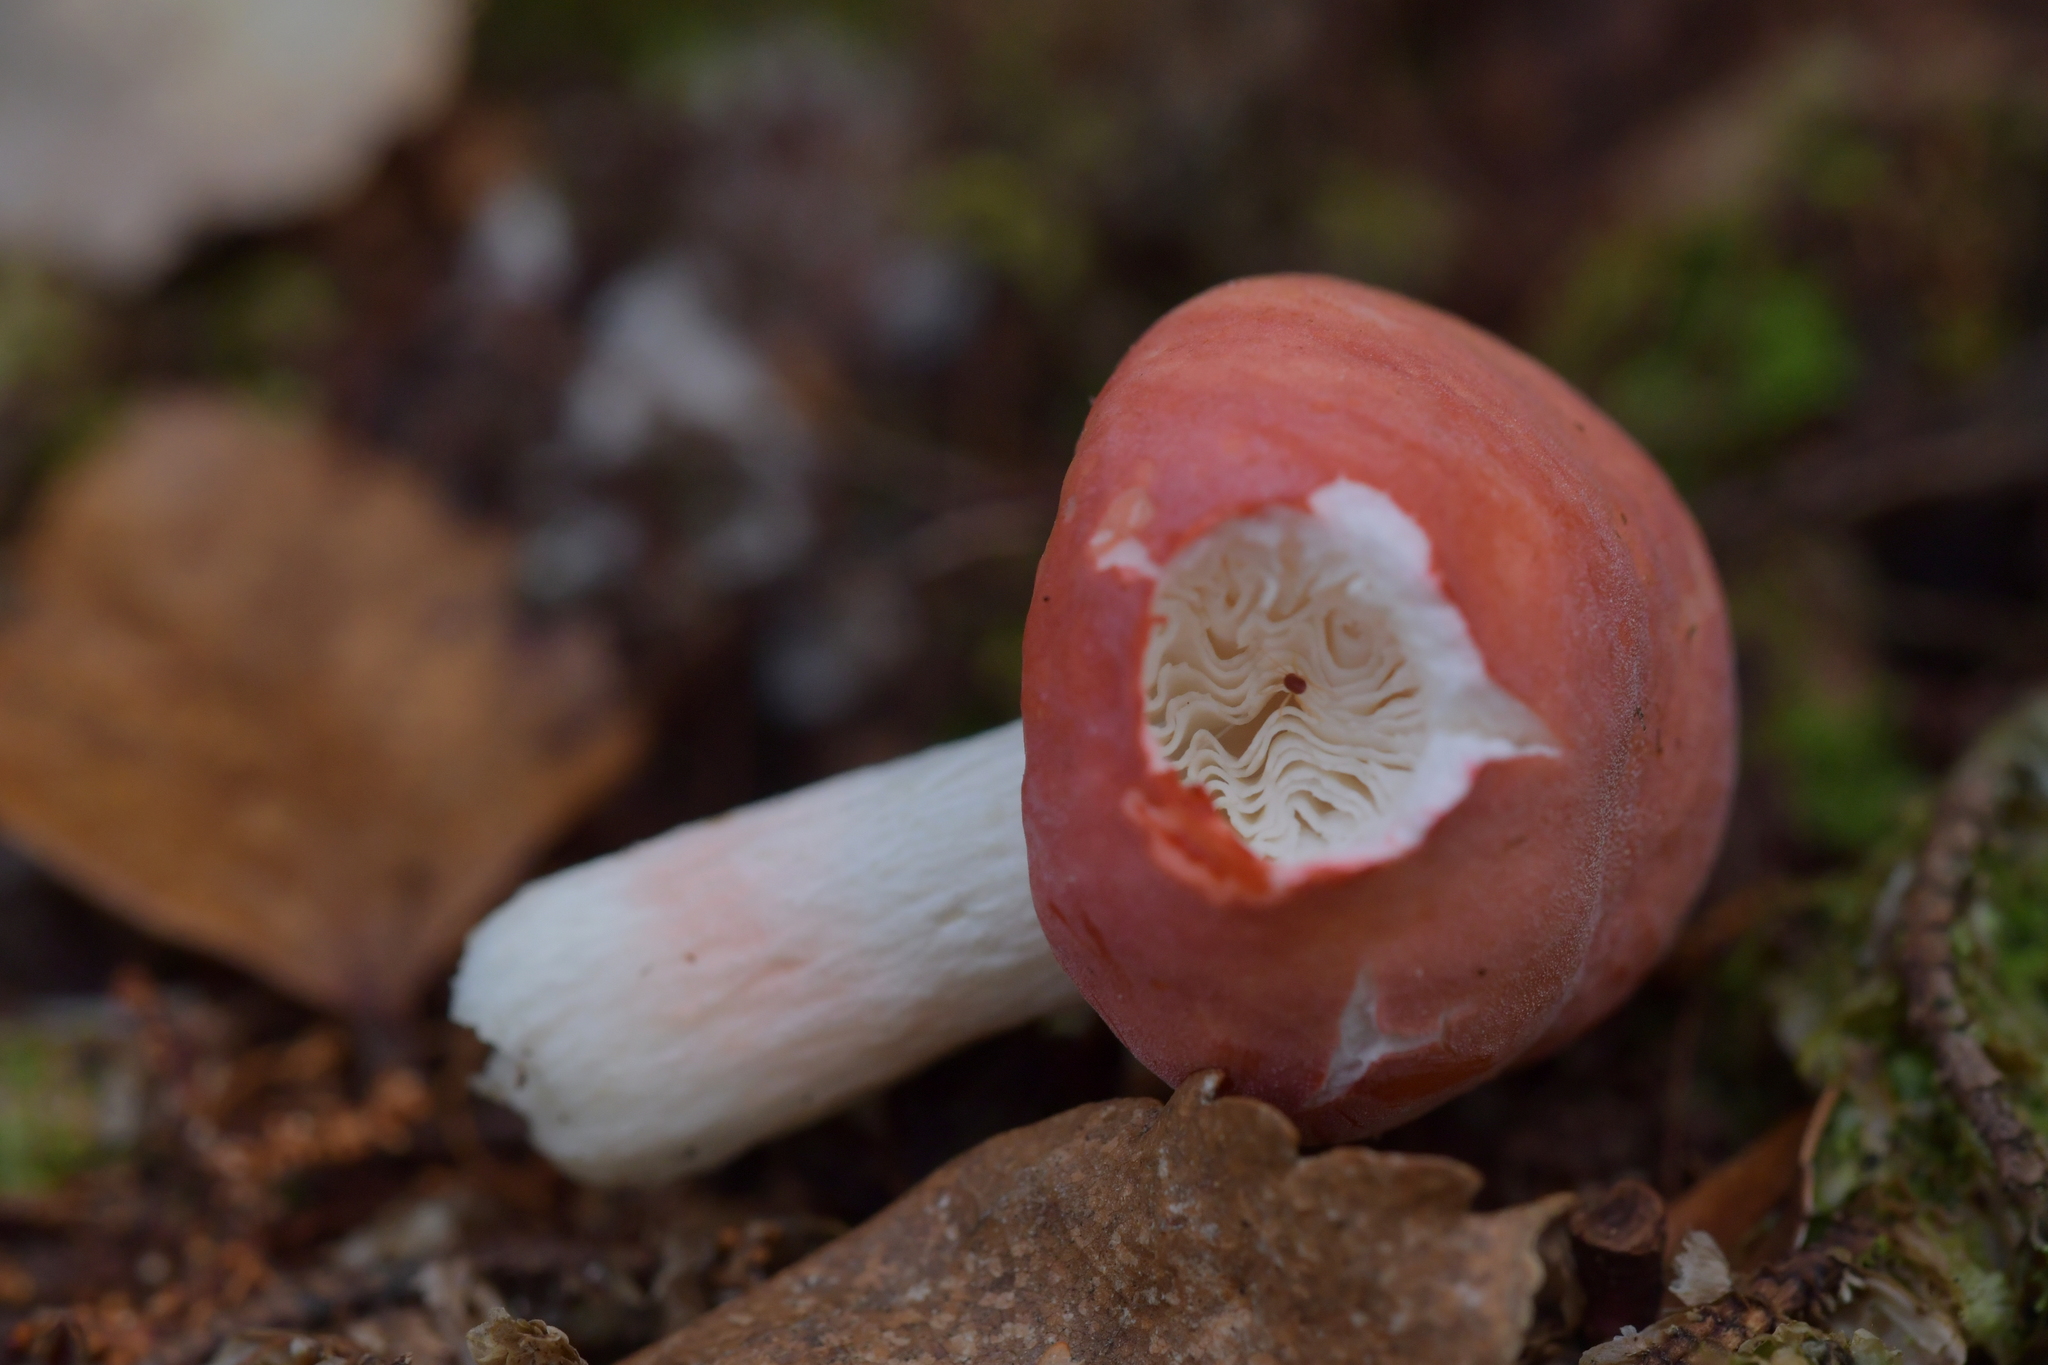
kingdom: Fungi
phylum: Basidiomycota
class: Agaricomycetes
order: Russulales
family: Russulaceae
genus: Russula
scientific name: Russula kermesina
